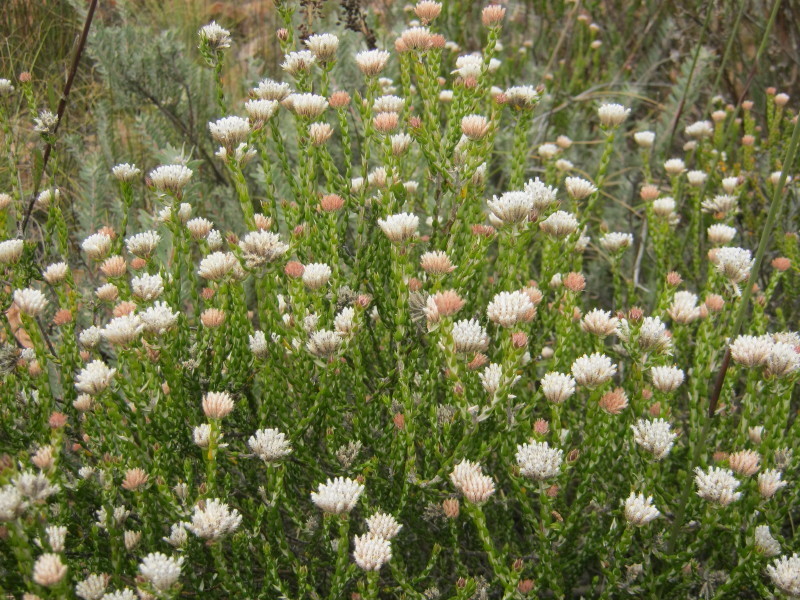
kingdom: Plantae
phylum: Tracheophyta
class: Magnoliopsida
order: Asterales
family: Asteraceae
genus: Metalasia
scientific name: Metalasia pulcherrima
